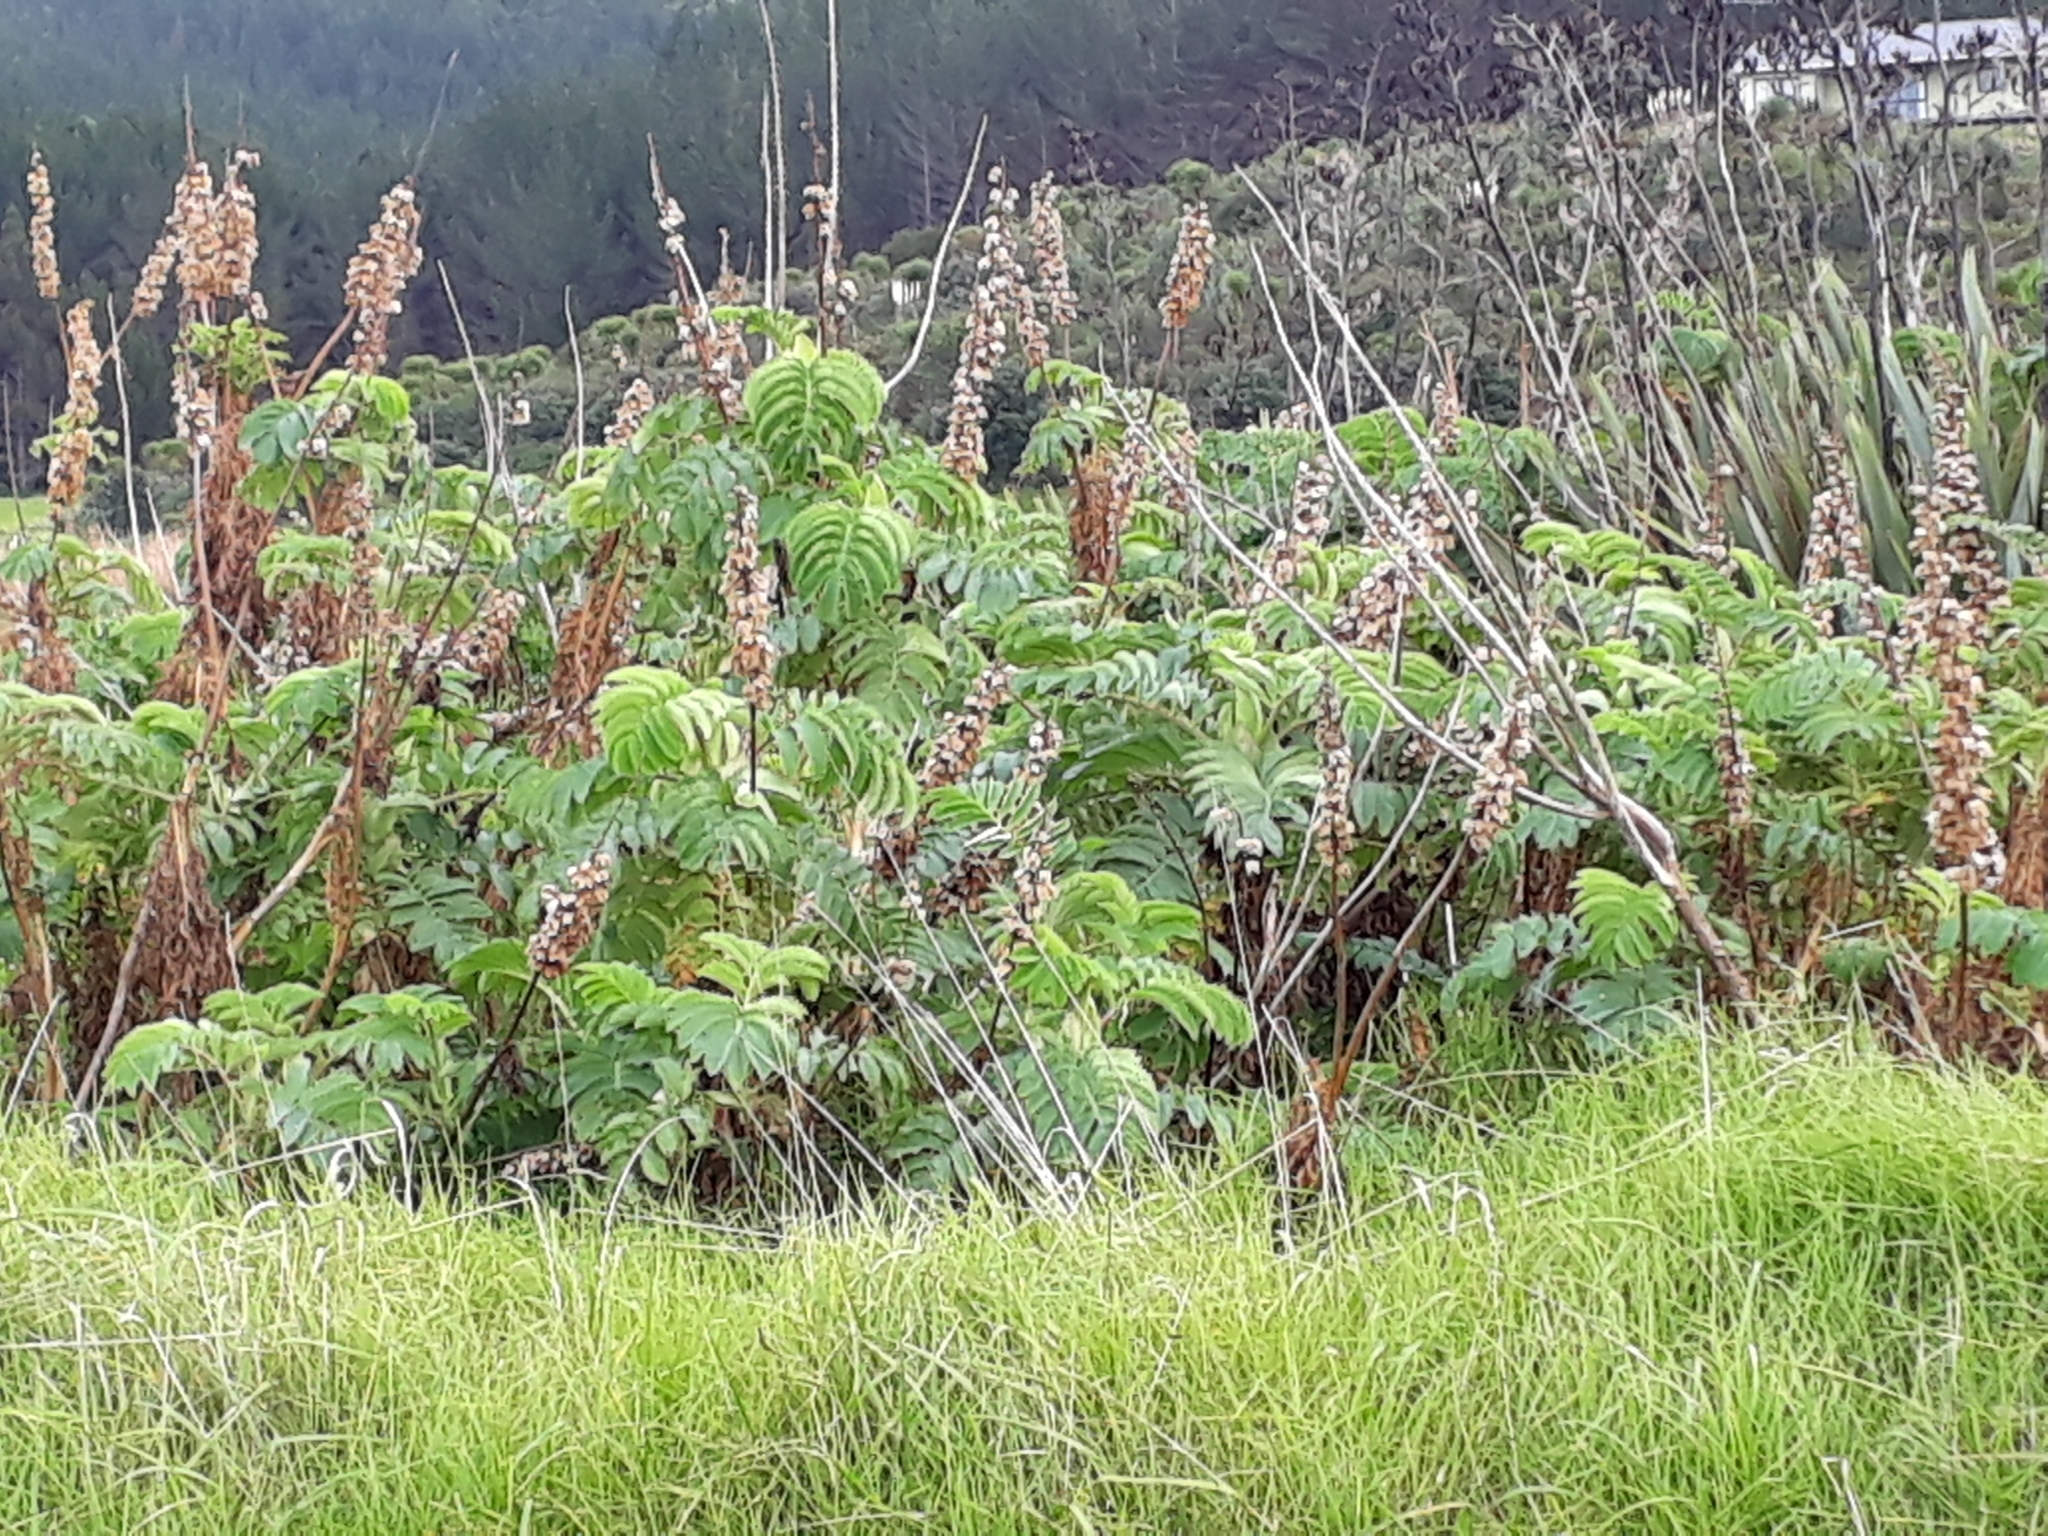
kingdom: Plantae
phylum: Tracheophyta
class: Magnoliopsida
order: Geraniales
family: Melianthaceae
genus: Melianthus
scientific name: Melianthus major
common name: Honey-flower
